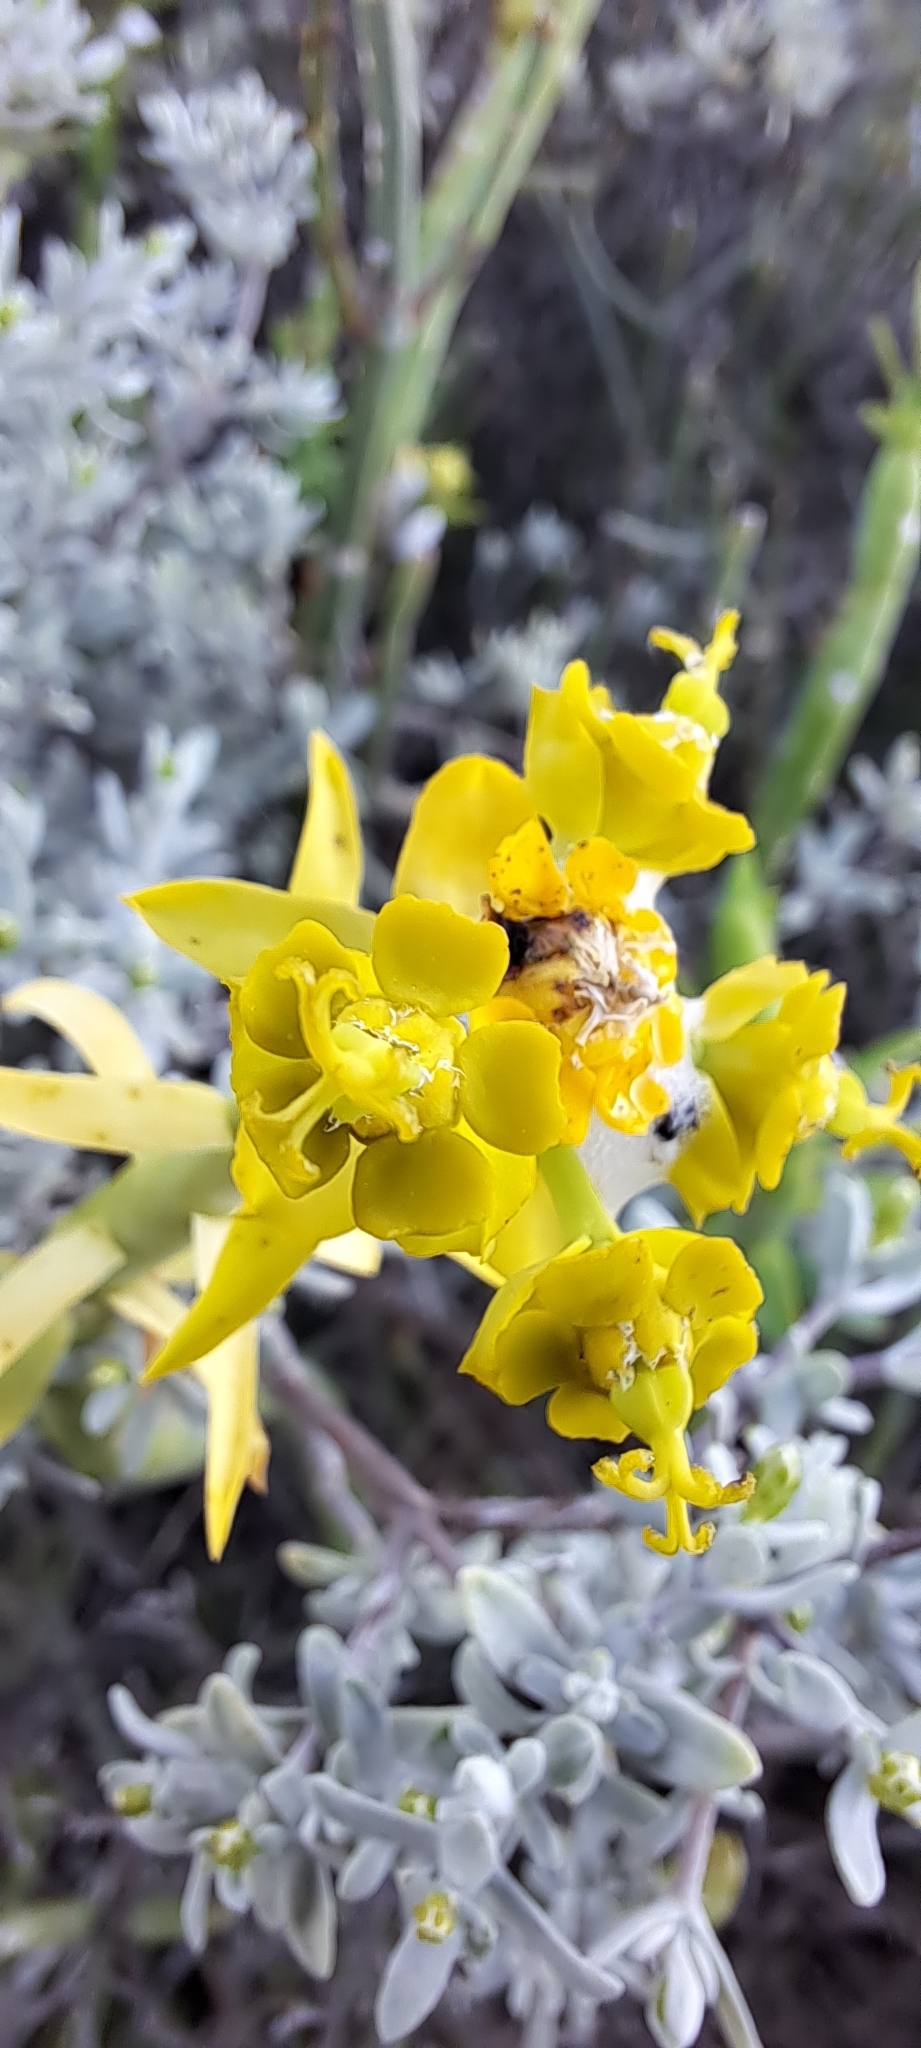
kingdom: Plantae
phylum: Tracheophyta
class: Magnoliopsida
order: Malpighiales
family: Euphorbiaceae
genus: Euphorbia
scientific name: Euphorbia mauritanica
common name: Jackal's-food
